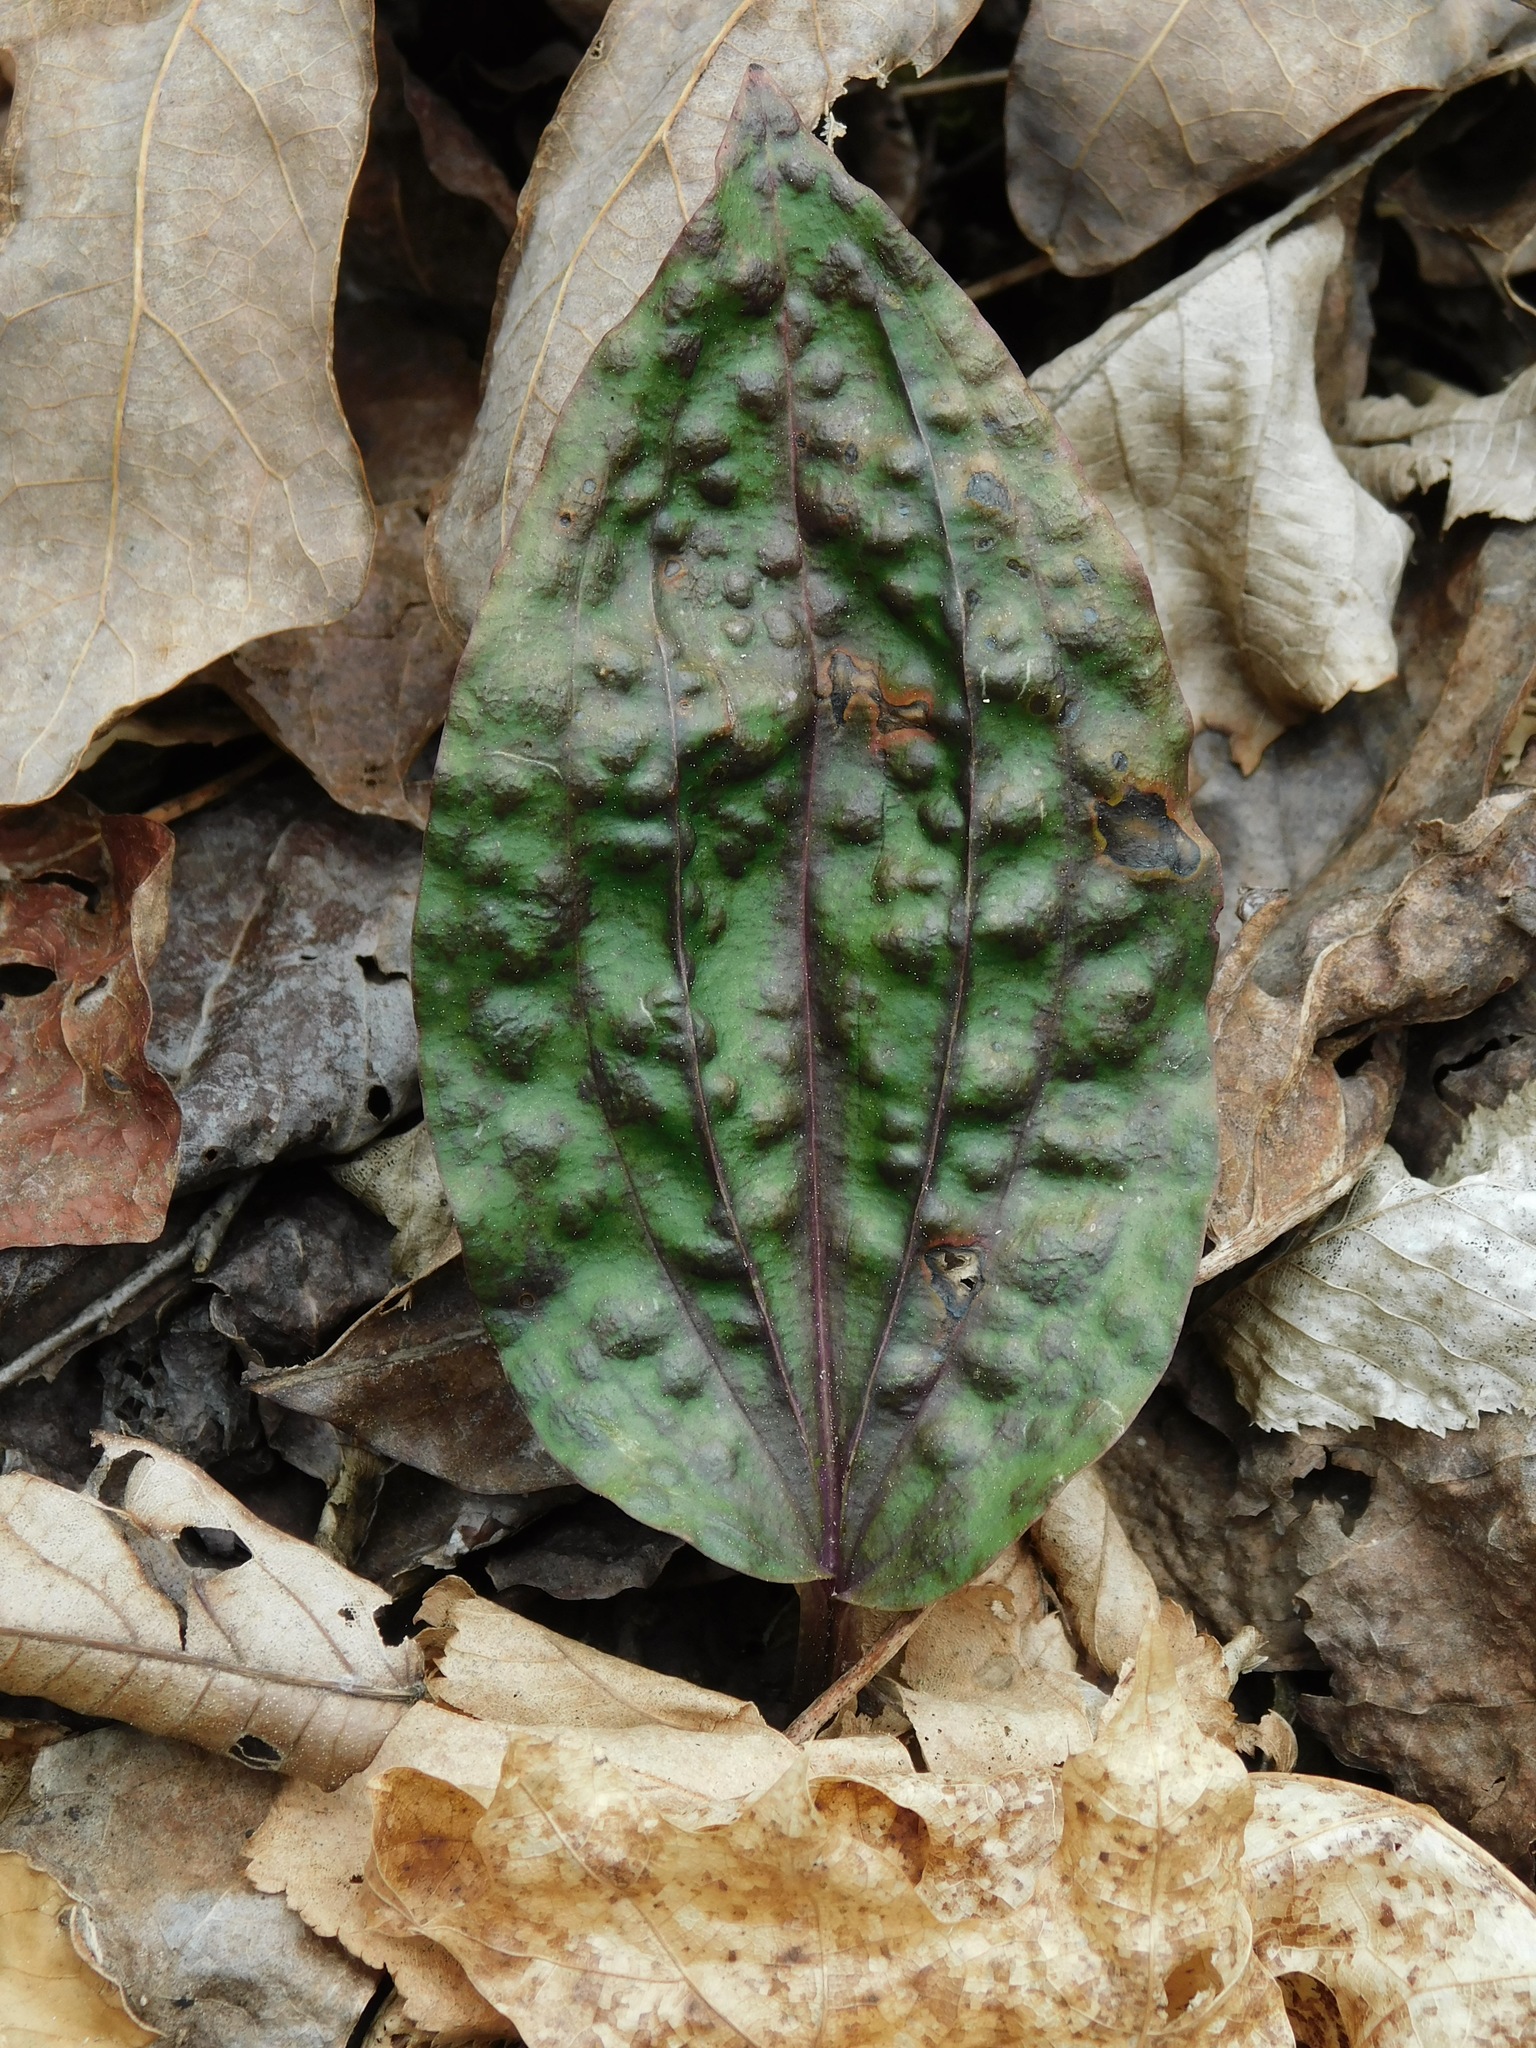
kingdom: Plantae
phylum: Tracheophyta
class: Liliopsida
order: Asparagales
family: Orchidaceae
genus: Tipularia
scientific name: Tipularia discolor
